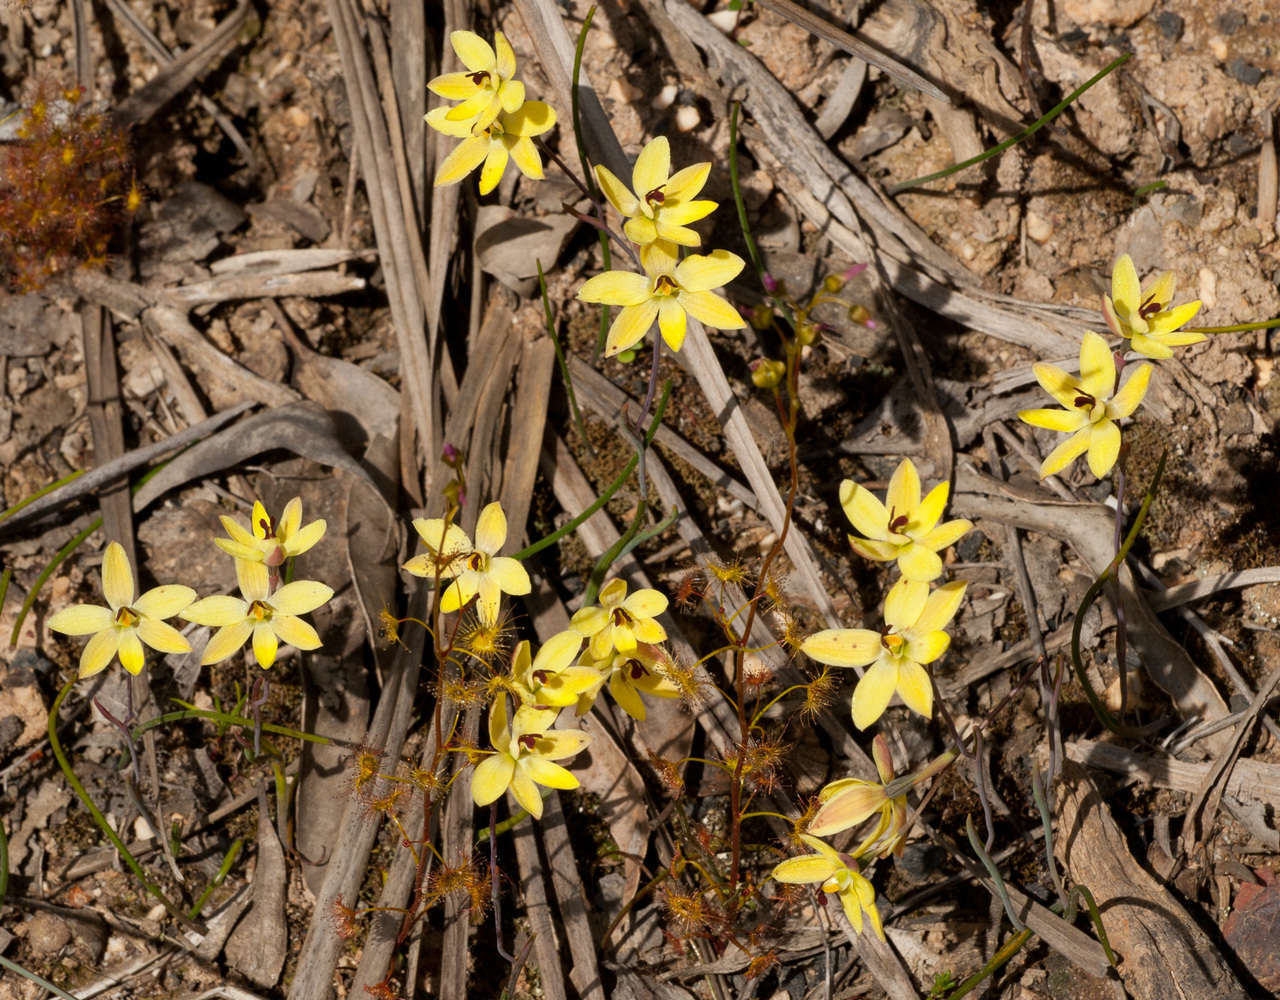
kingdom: Plantae
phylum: Tracheophyta
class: Liliopsida
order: Asparagales
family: Orchidaceae
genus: Thelymitra
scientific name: Thelymitra antennifera
